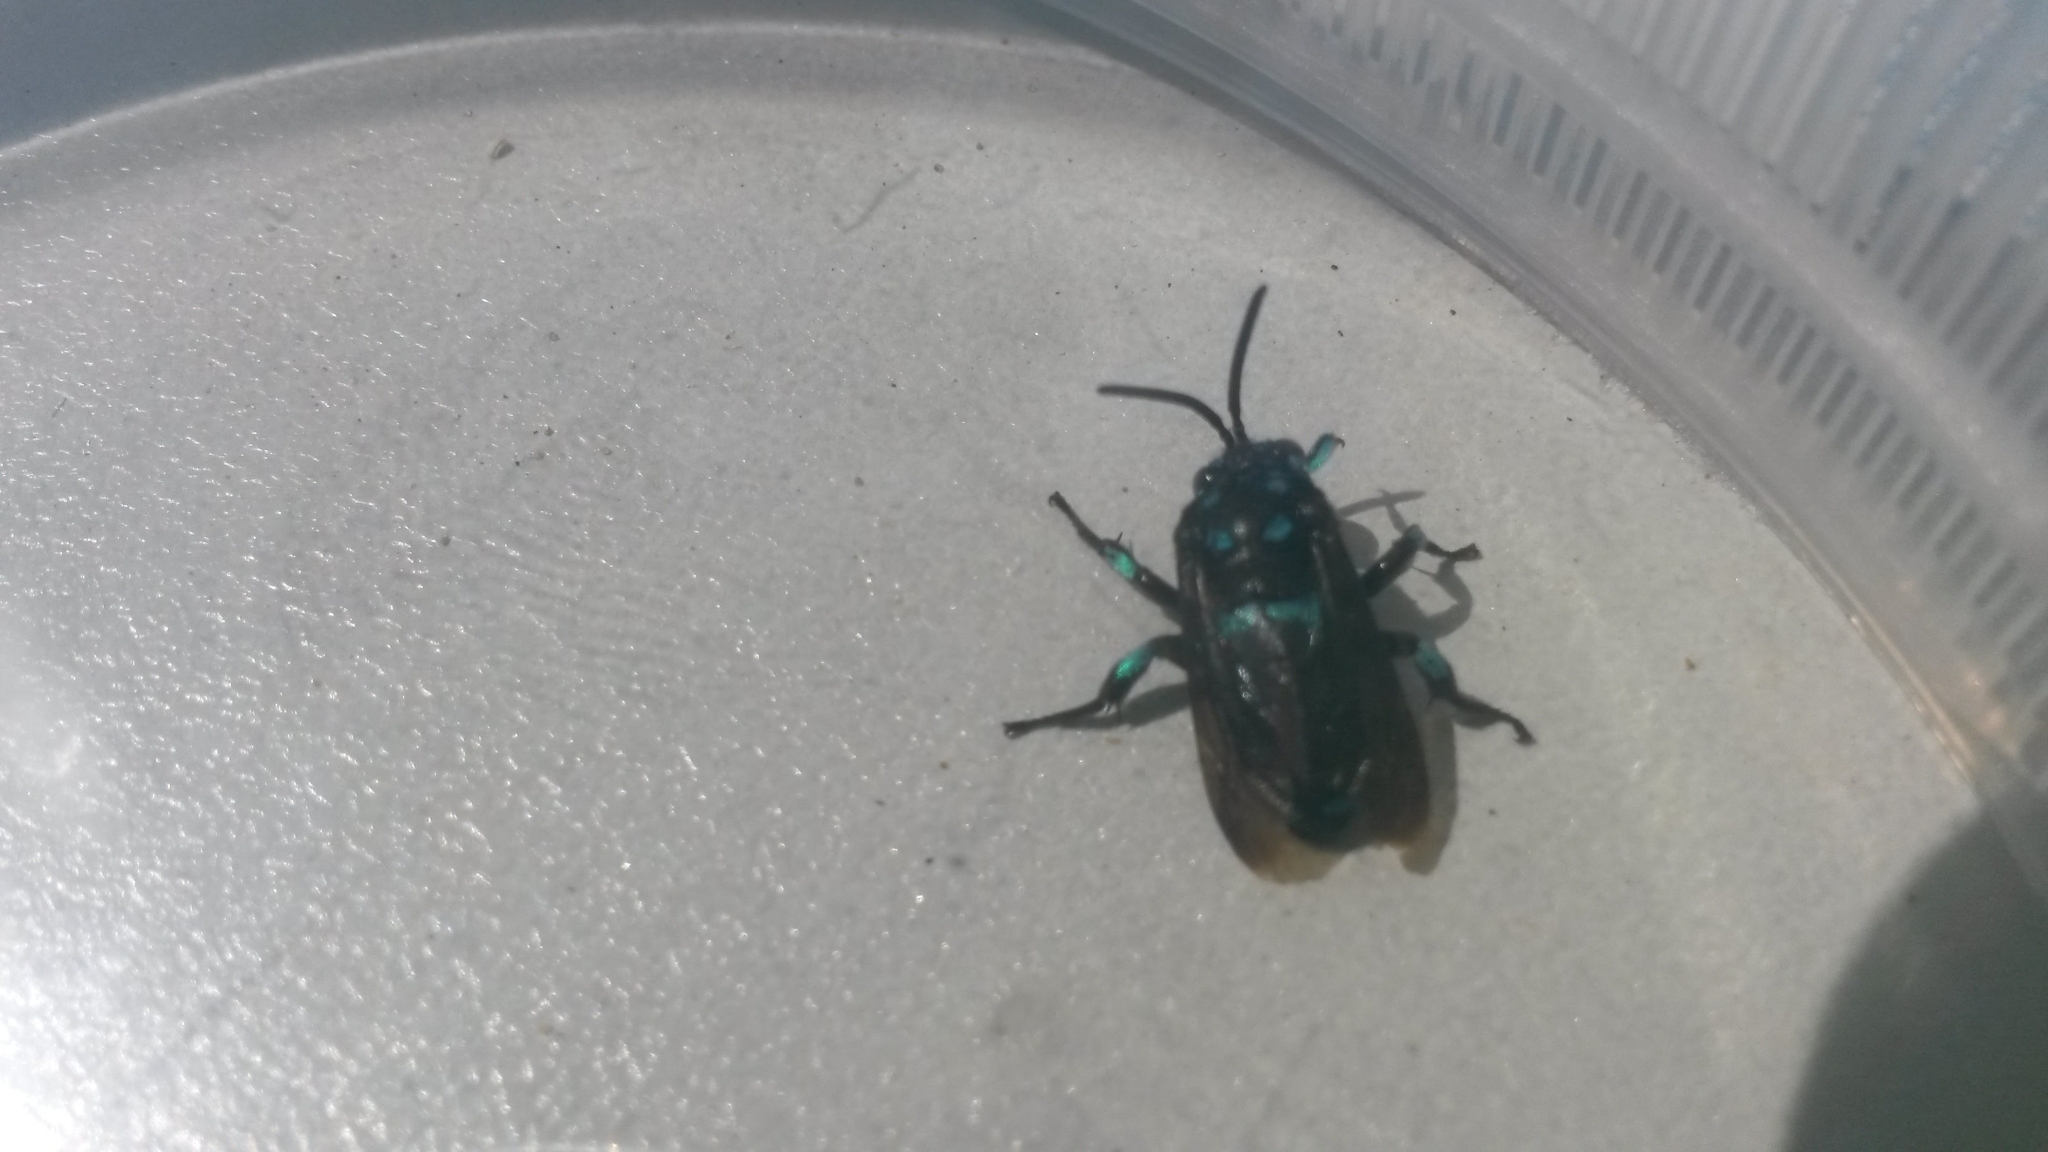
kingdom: Animalia
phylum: Arthropoda
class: Insecta
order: Hymenoptera
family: Apidae
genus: Thyreus
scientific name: Thyreus nitidulus
